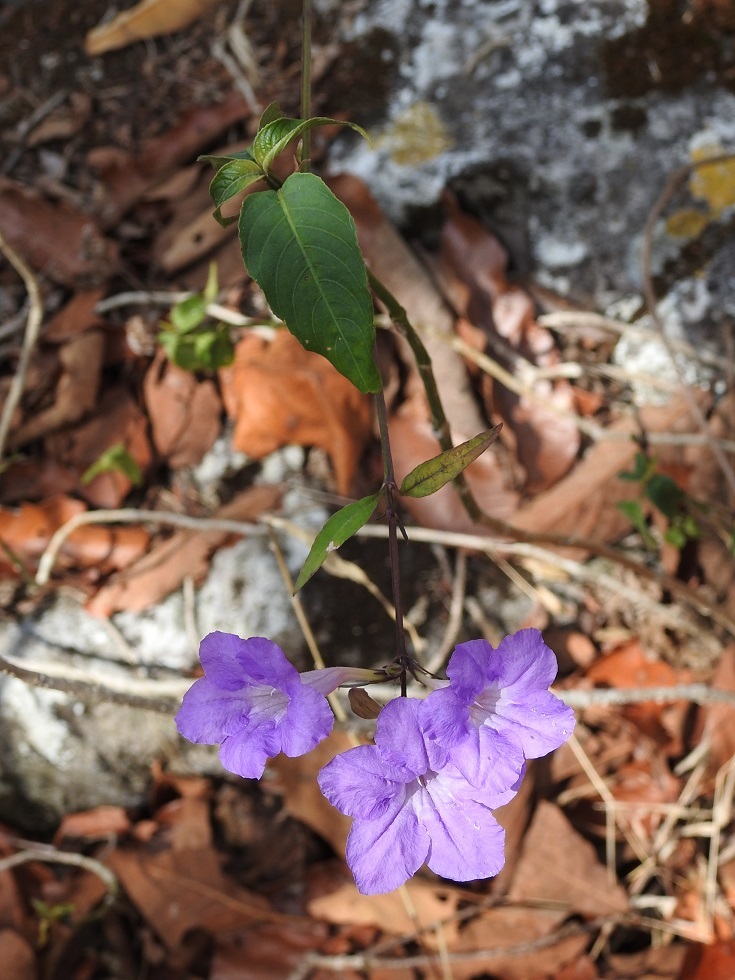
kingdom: Plantae
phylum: Tracheophyta
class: Magnoliopsida
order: Lamiales
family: Acanthaceae
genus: Ruellia
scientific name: Ruellia breedlovei
